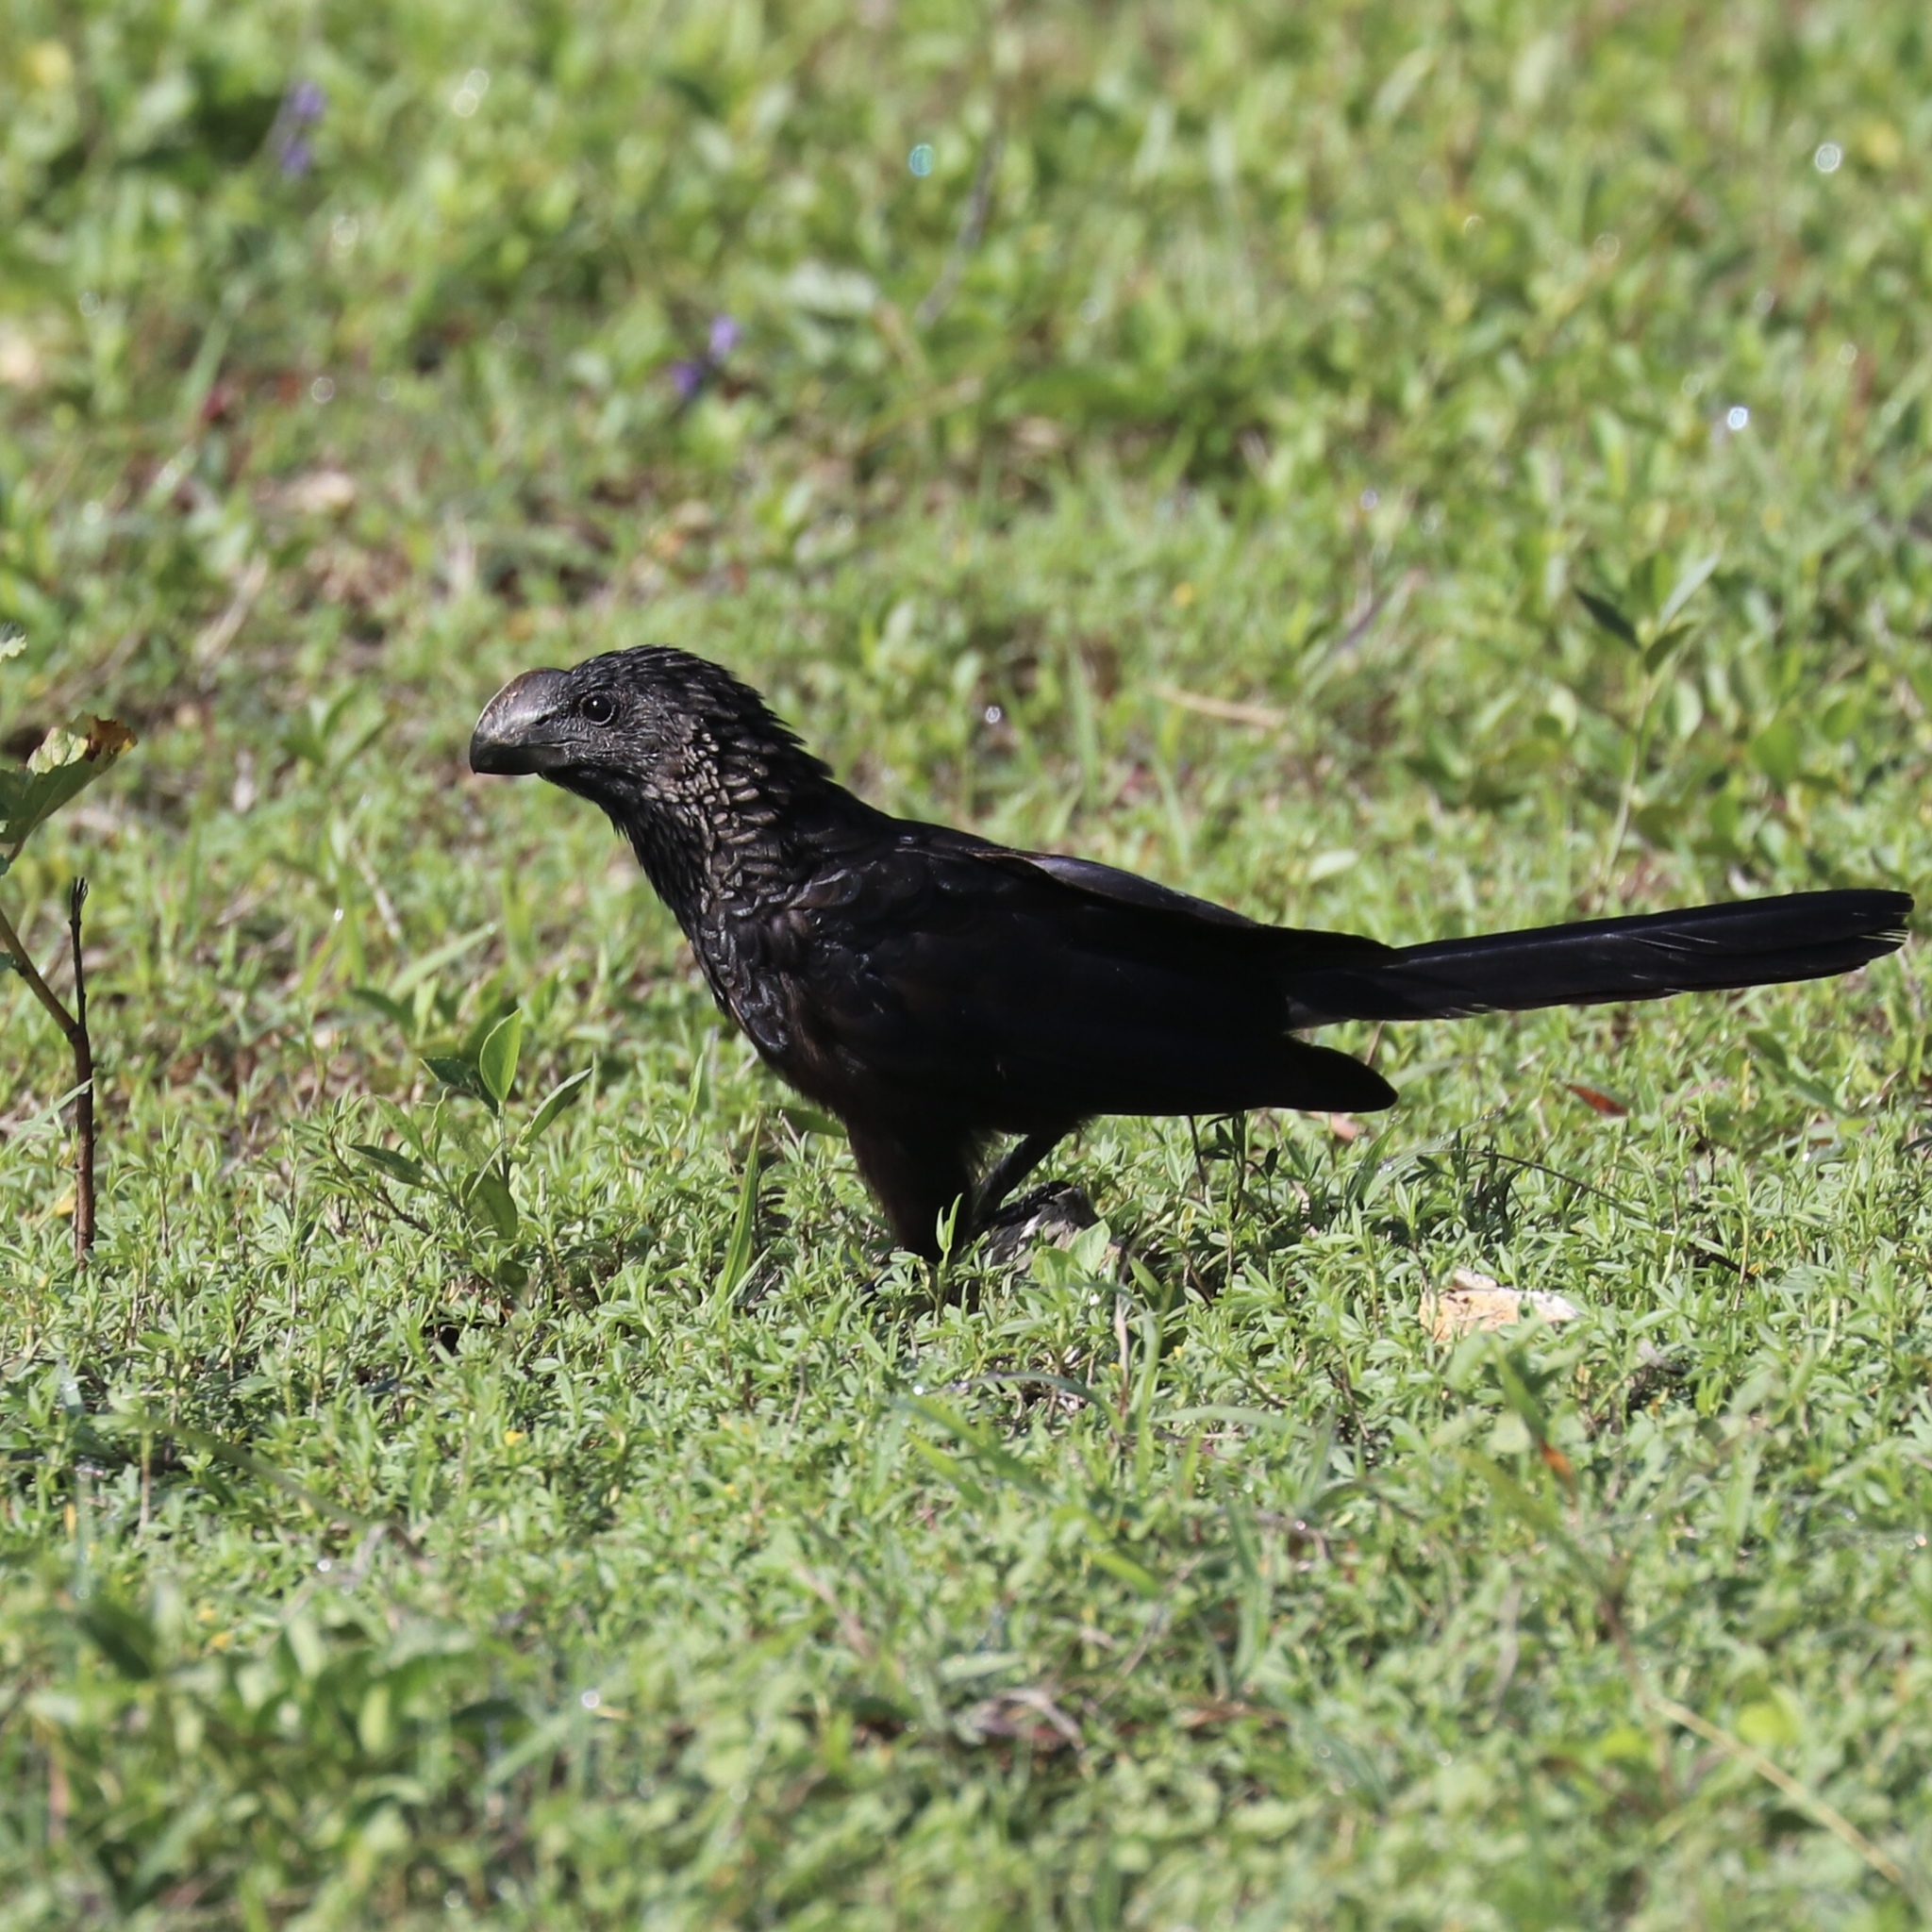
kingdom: Animalia
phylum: Chordata
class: Aves
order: Cuculiformes
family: Cuculidae
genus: Crotophaga
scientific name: Crotophaga ani
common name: Smooth-billed ani
